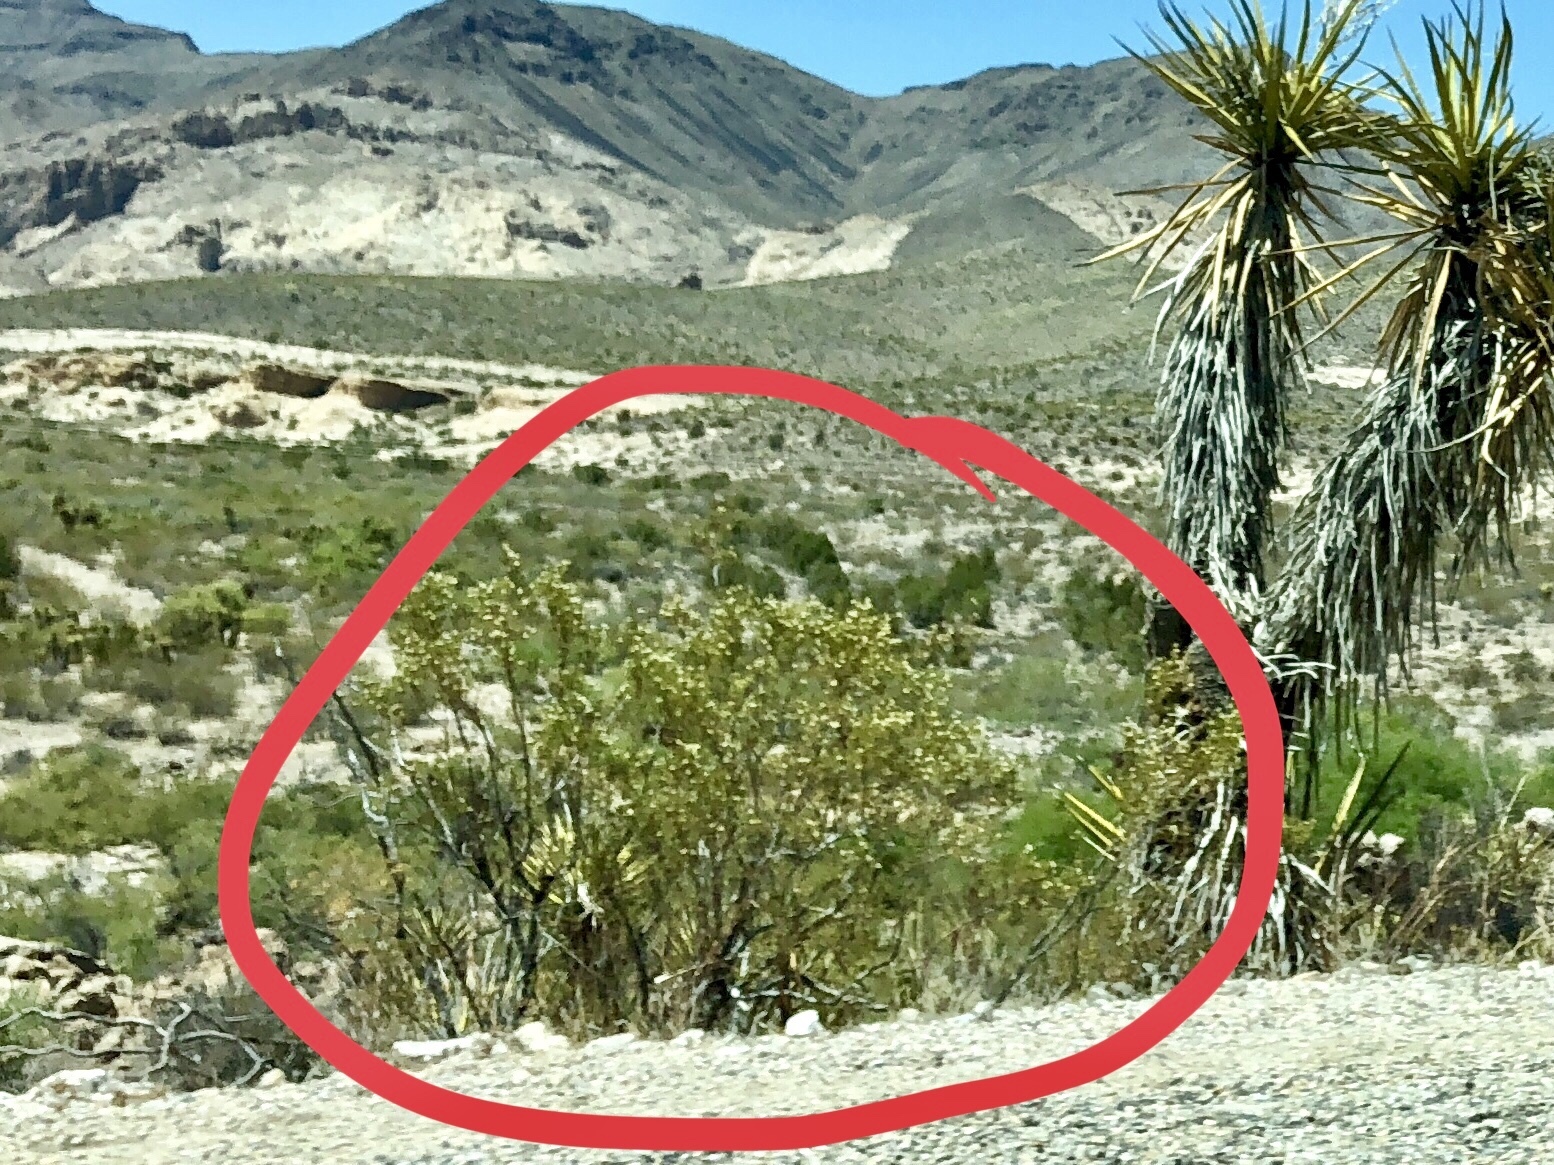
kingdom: Plantae
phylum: Tracheophyta
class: Magnoliopsida
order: Zygophyllales
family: Zygophyllaceae
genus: Larrea
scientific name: Larrea tridentata
